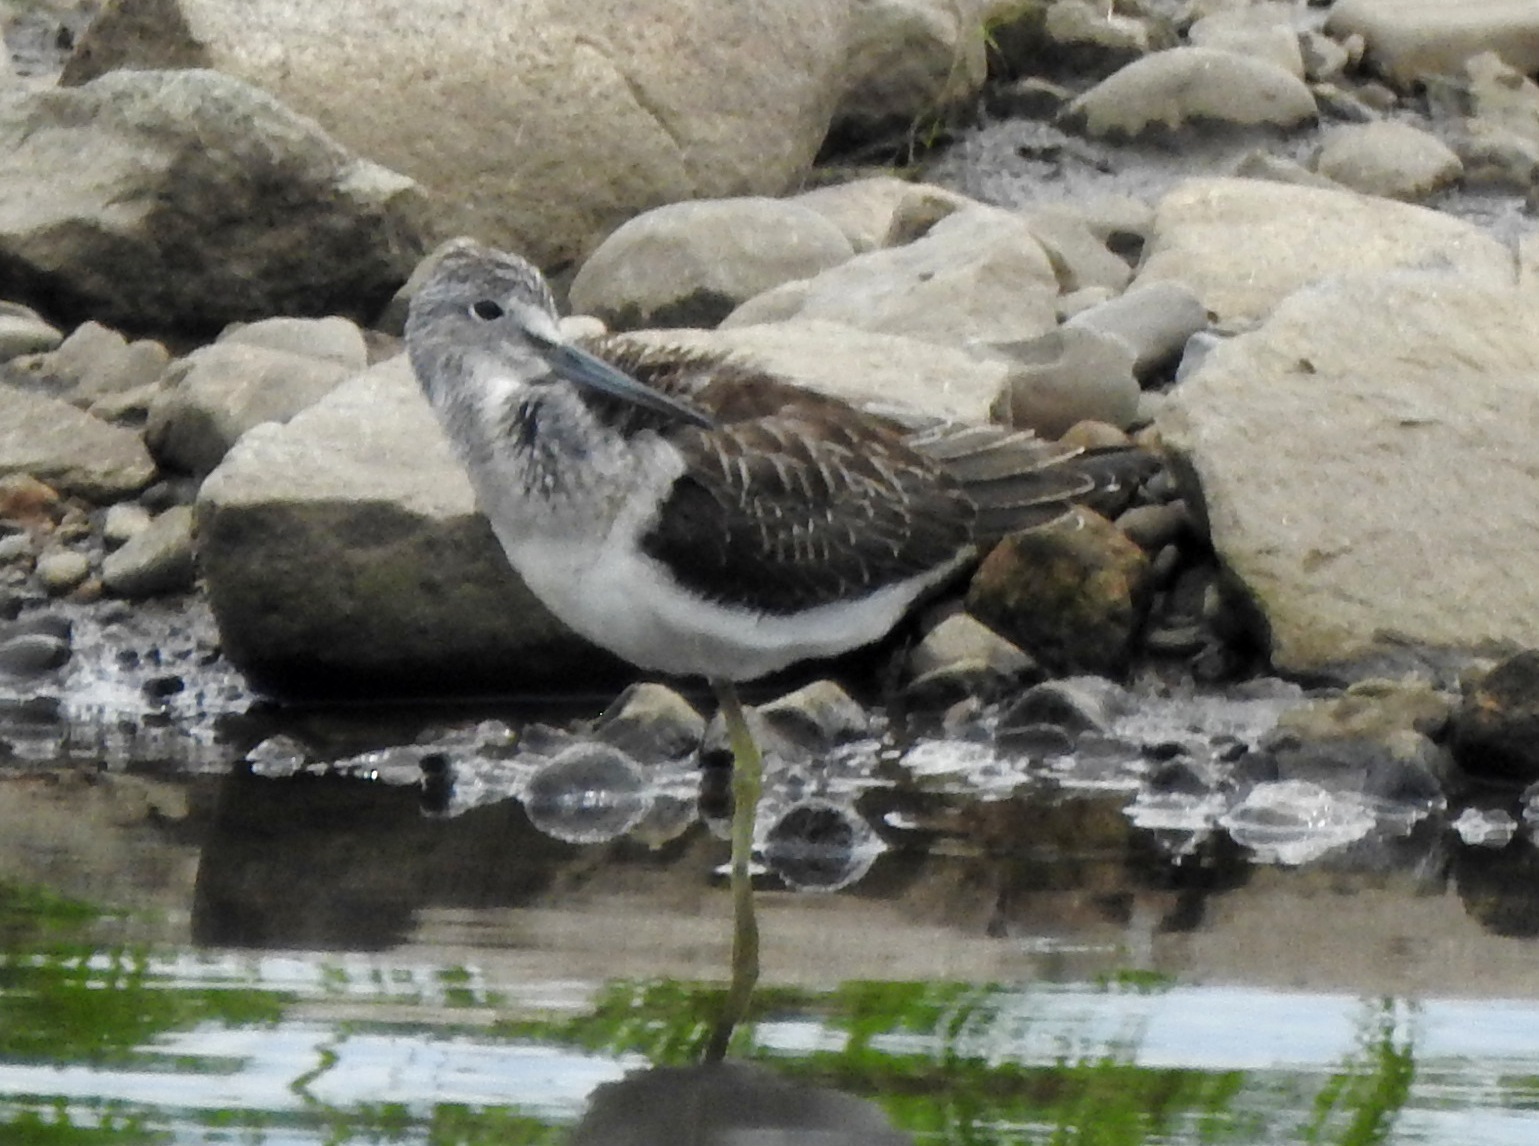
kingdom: Animalia
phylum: Chordata
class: Aves
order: Charadriiformes
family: Scolopacidae
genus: Tringa
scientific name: Tringa nebularia
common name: Common greenshank
